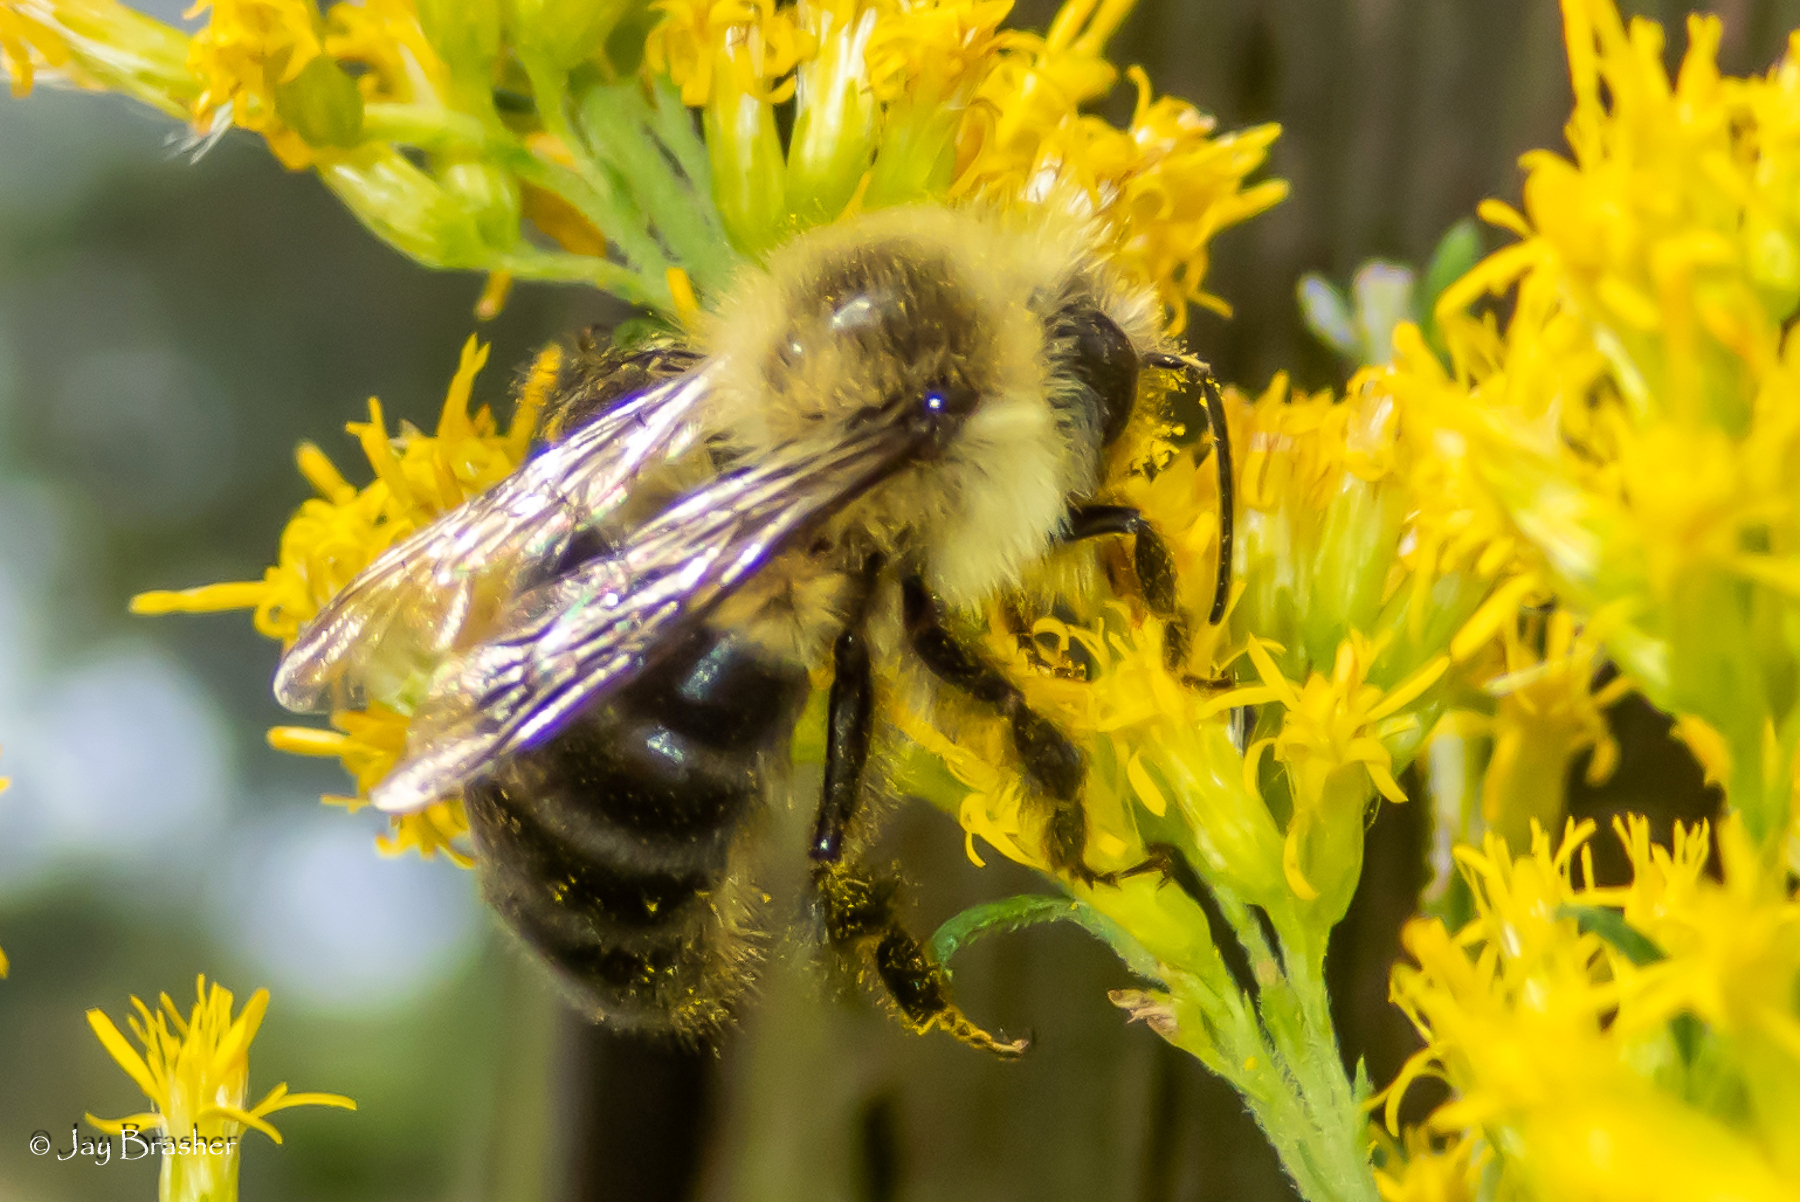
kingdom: Animalia
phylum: Arthropoda
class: Insecta
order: Hymenoptera
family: Apidae
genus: Bombus
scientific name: Bombus impatiens
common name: Common eastern bumble bee
